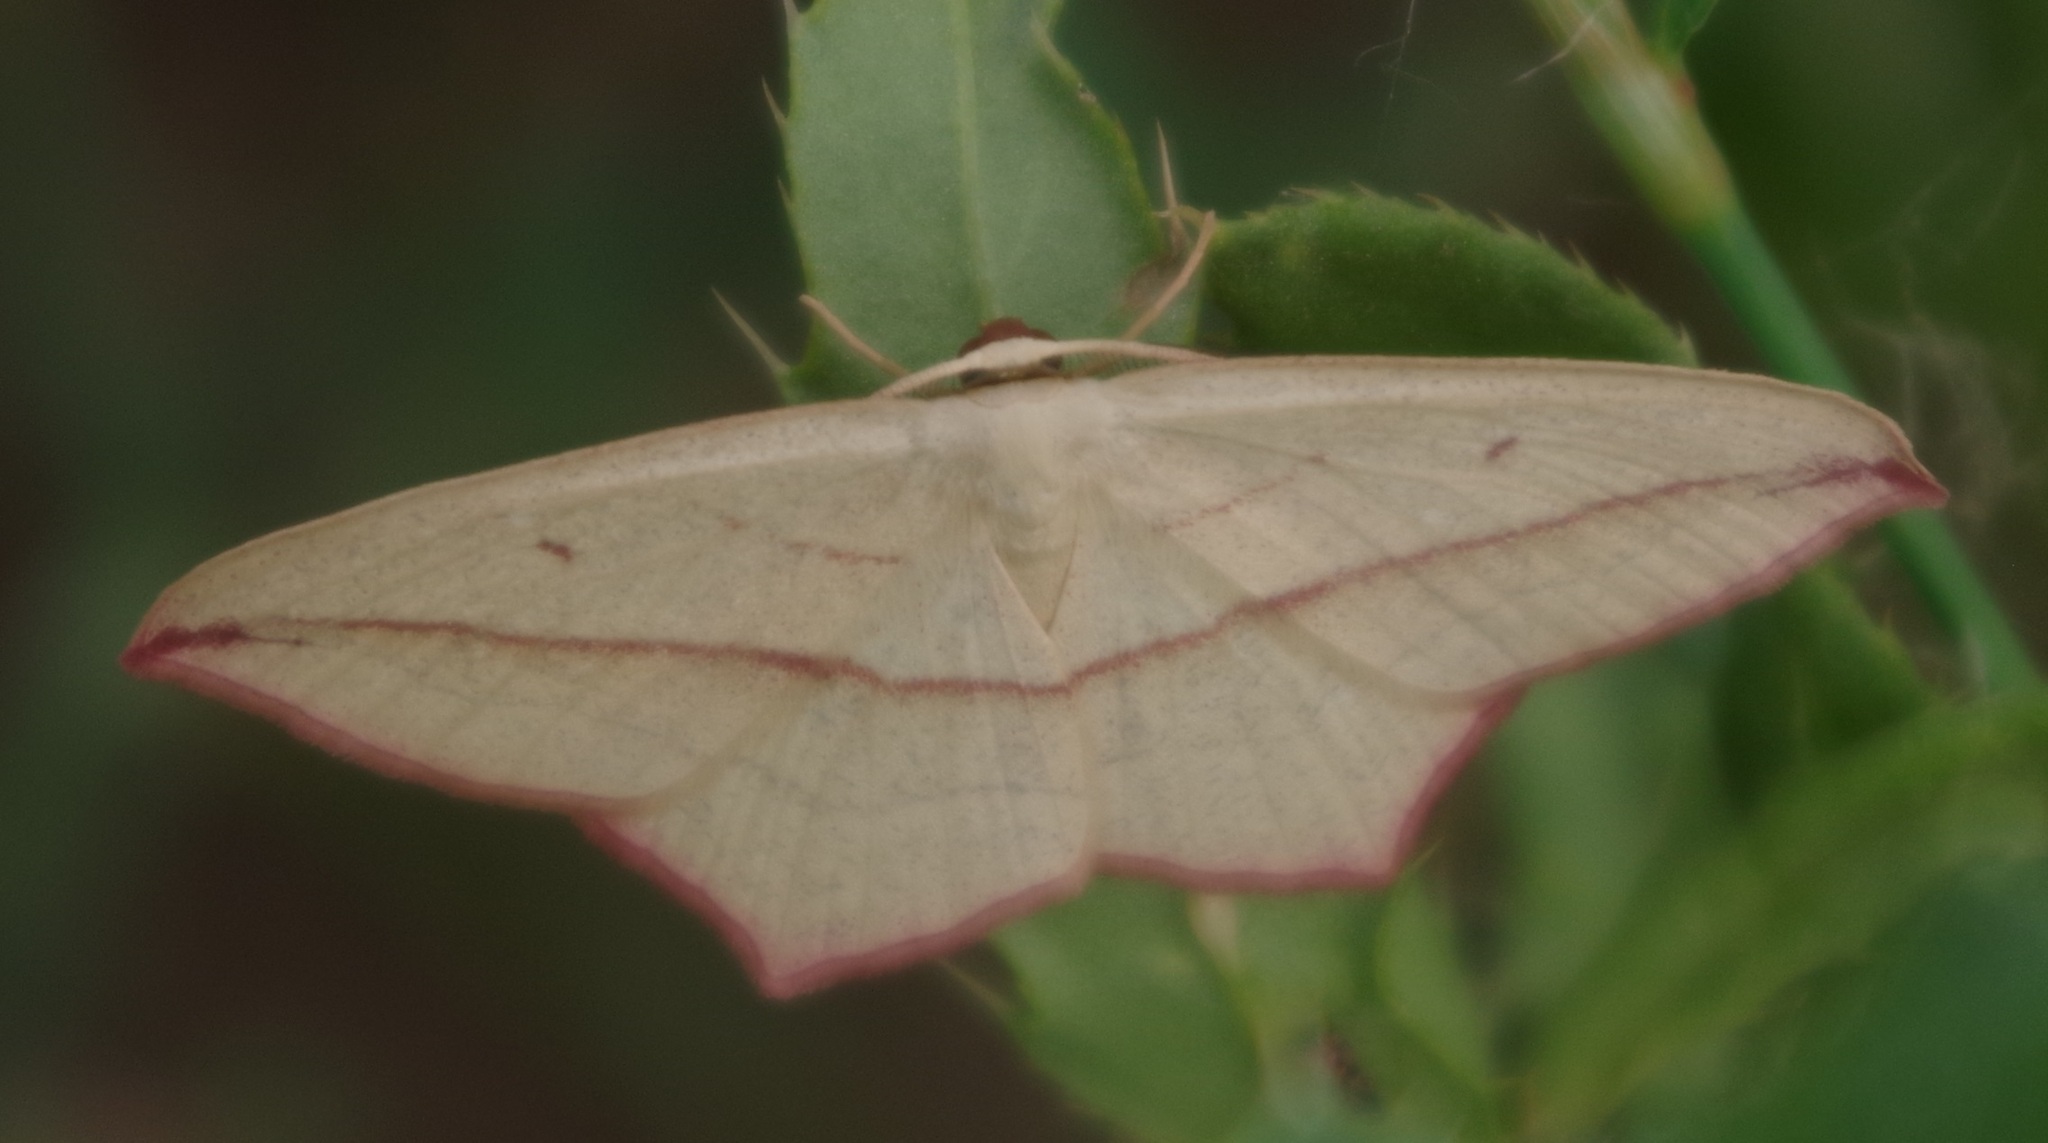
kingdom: Animalia
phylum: Arthropoda
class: Insecta
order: Lepidoptera
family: Geometridae
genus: Timandra
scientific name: Timandra comae
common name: Blood-vein
